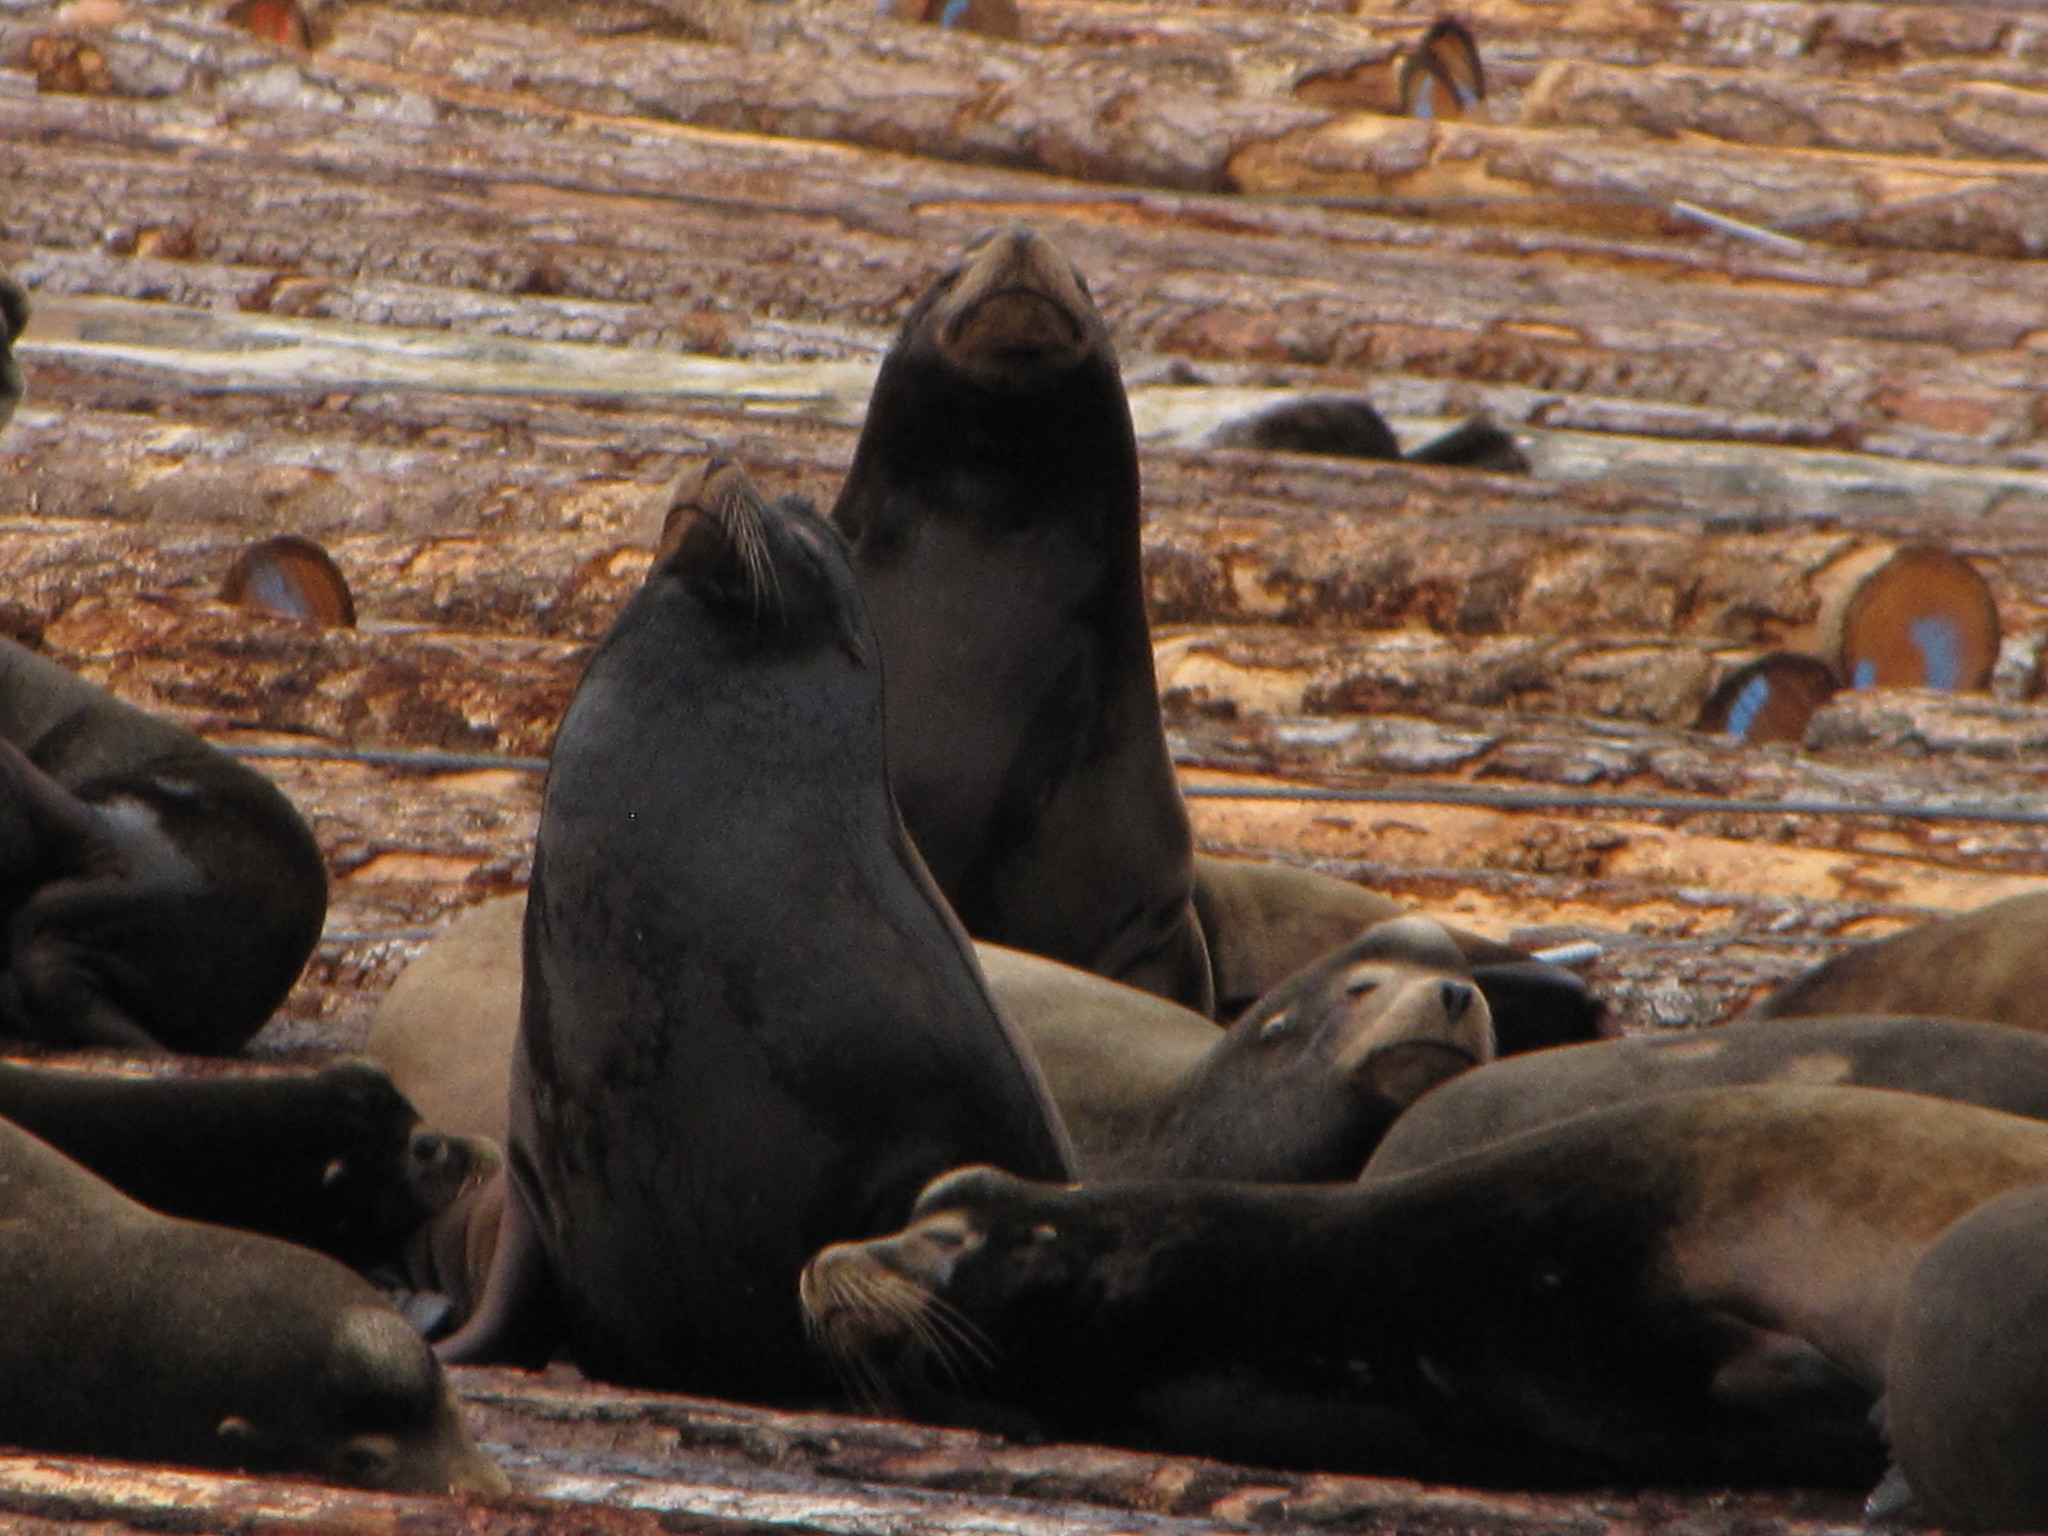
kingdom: Animalia
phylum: Chordata
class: Mammalia
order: Carnivora
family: Otariidae
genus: Zalophus
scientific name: Zalophus californianus
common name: California sea lion
